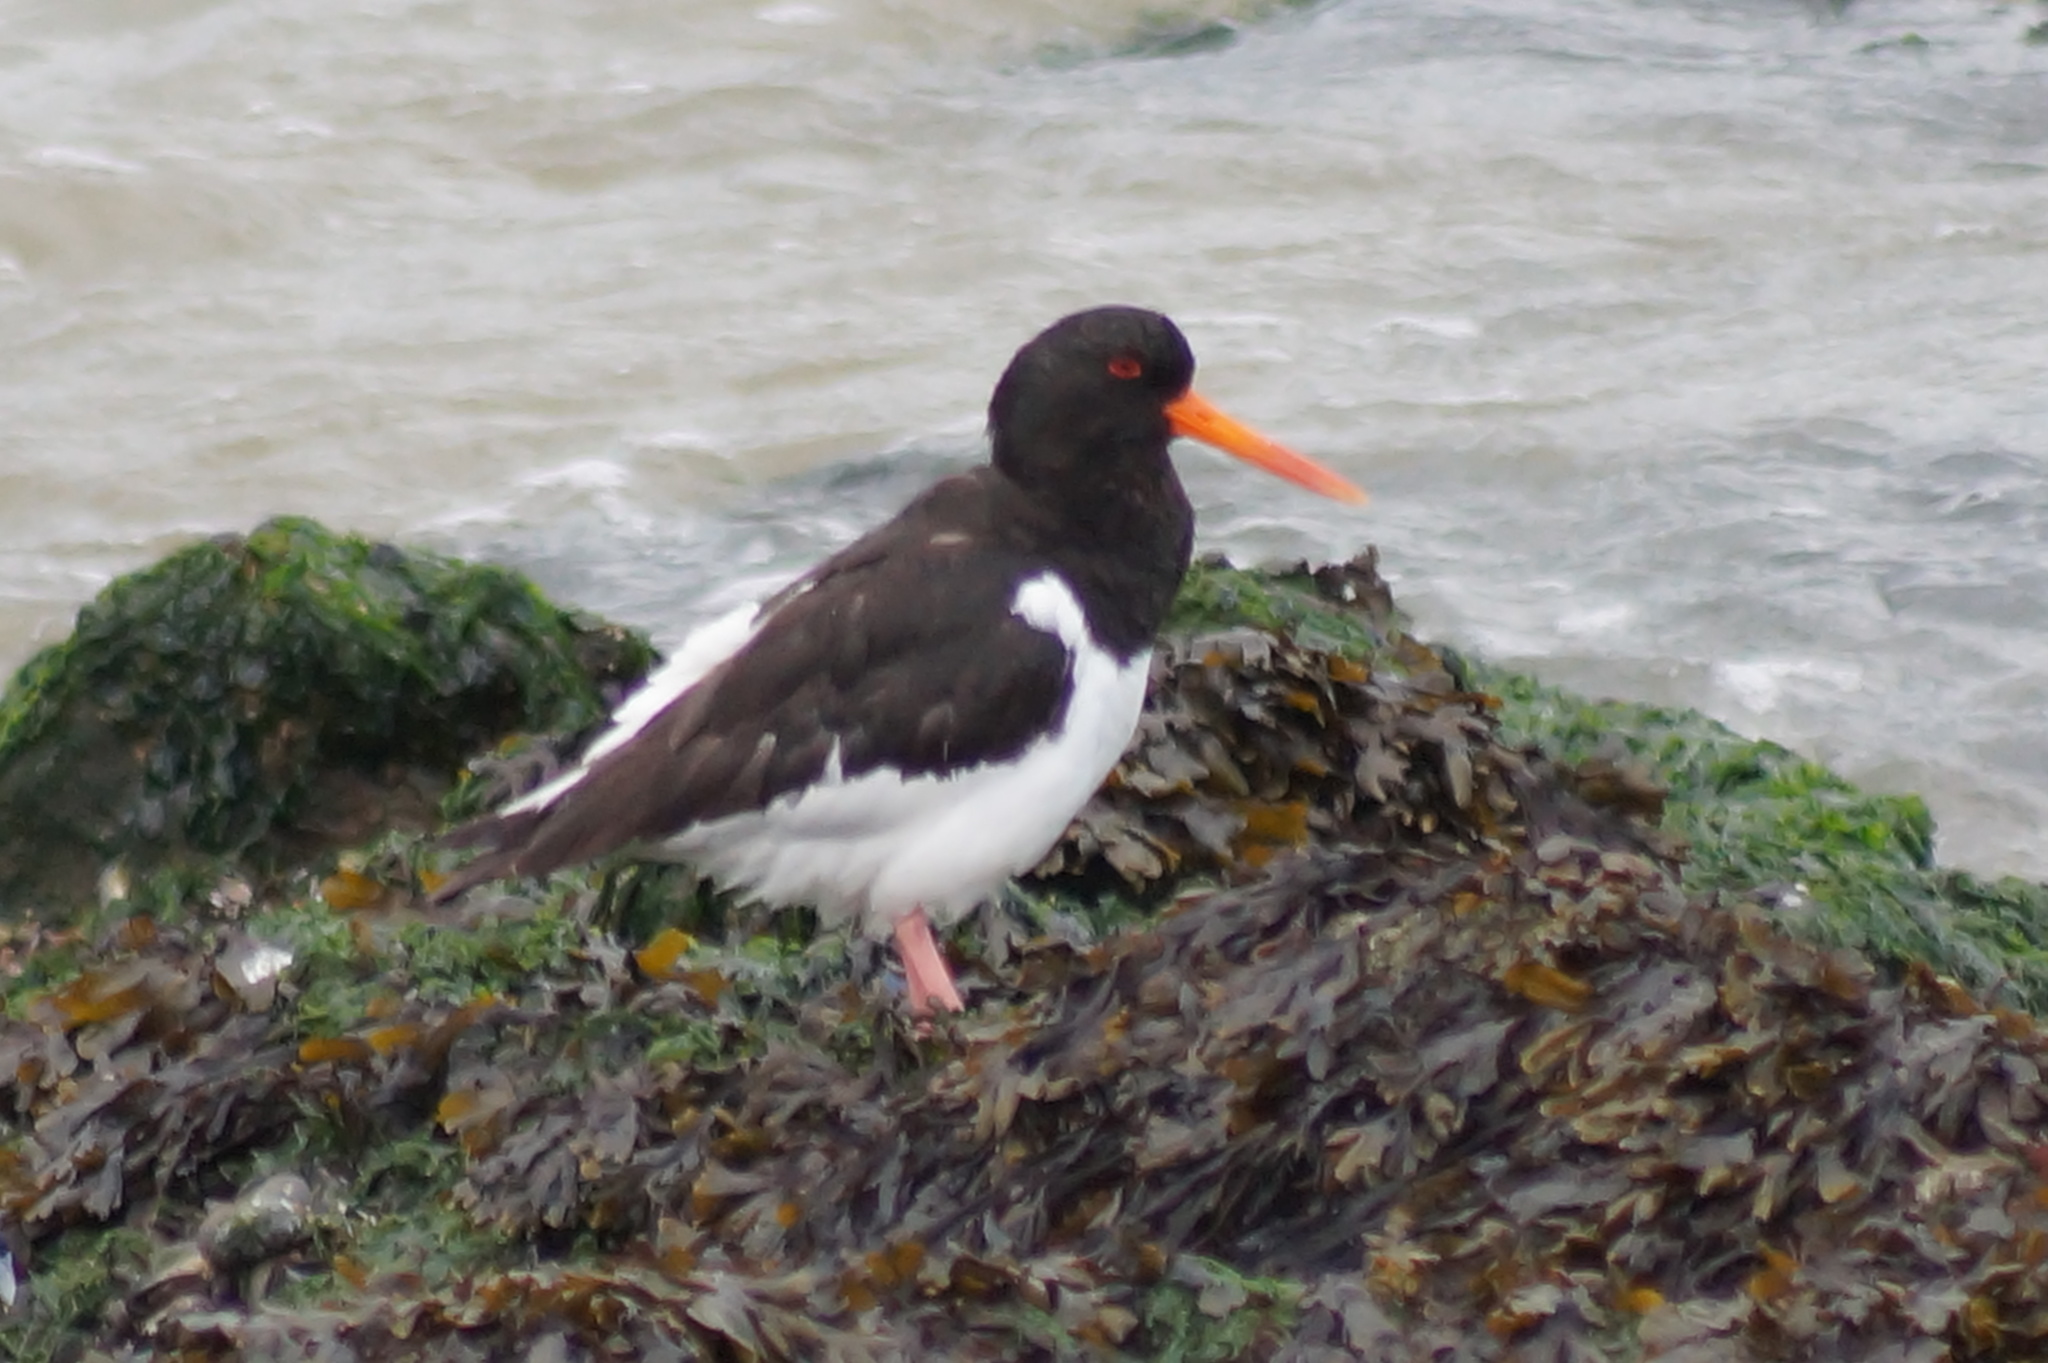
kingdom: Animalia
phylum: Chordata
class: Aves
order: Charadriiformes
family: Haematopodidae
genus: Haematopus
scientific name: Haematopus ostralegus
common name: Eurasian oystercatcher
